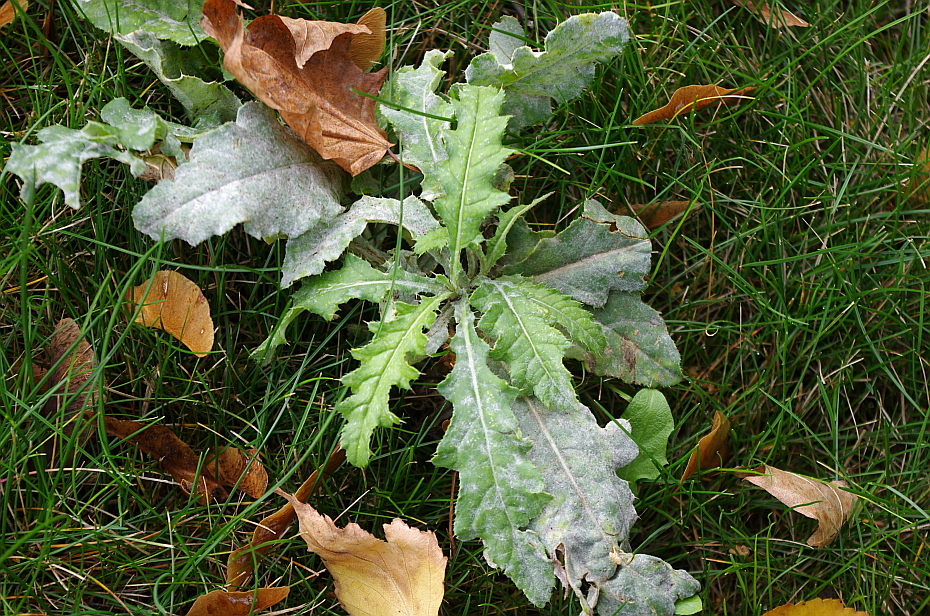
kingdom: Plantae
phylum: Tracheophyta
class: Magnoliopsida
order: Asterales
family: Asteraceae
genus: Cirsium
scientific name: Cirsium arvense
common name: Creeping thistle
